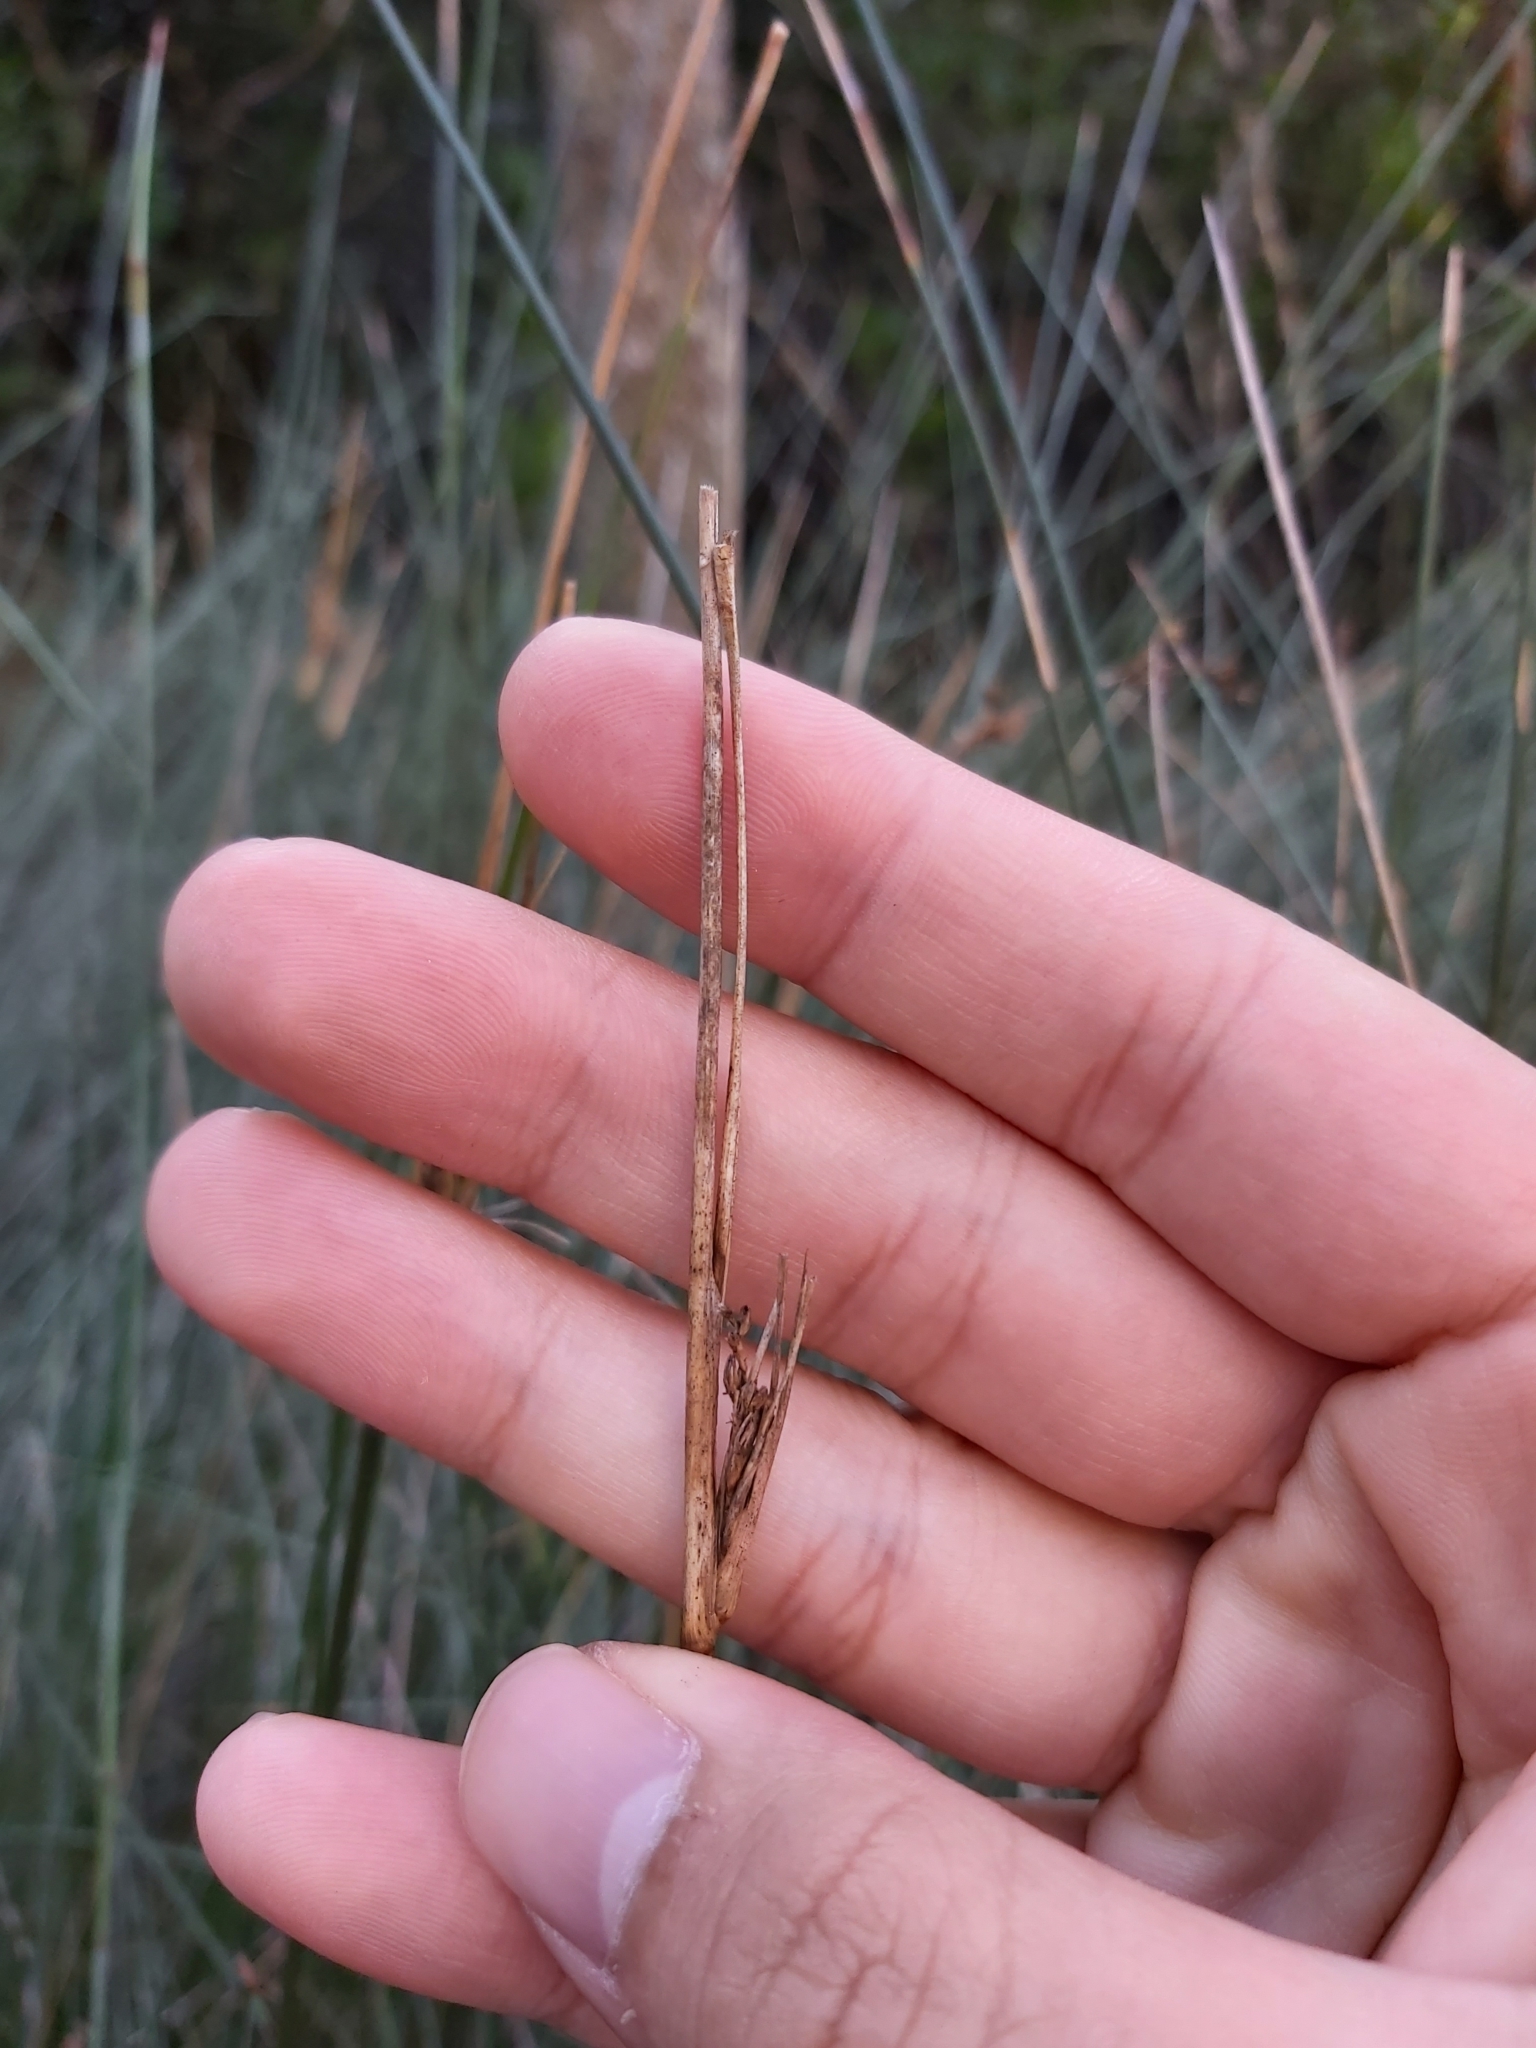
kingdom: Plantae
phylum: Tracheophyta
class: Liliopsida
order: Poales
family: Cyperaceae
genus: Machaerina
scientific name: Machaerina juncea
